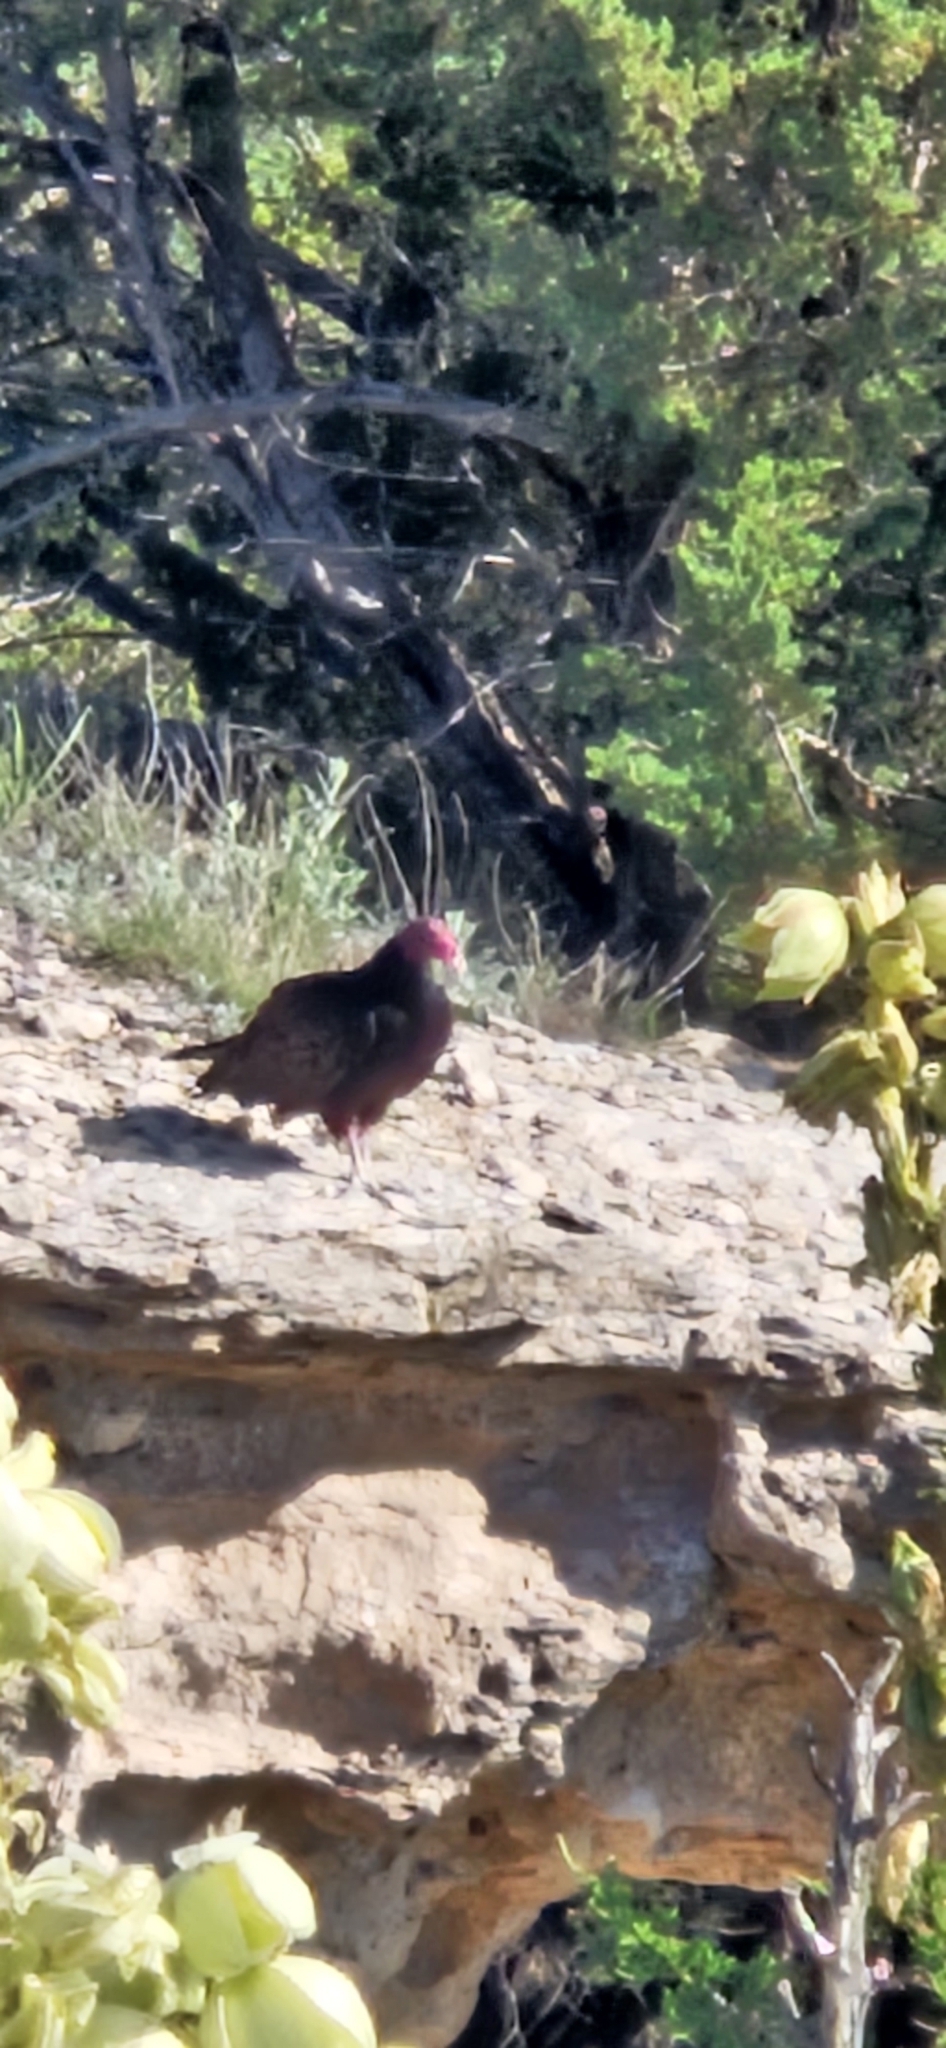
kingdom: Animalia
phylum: Chordata
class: Aves
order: Accipitriformes
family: Cathartidae
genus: Cathartes
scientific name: Cathartes aura
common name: Turkey vulture
